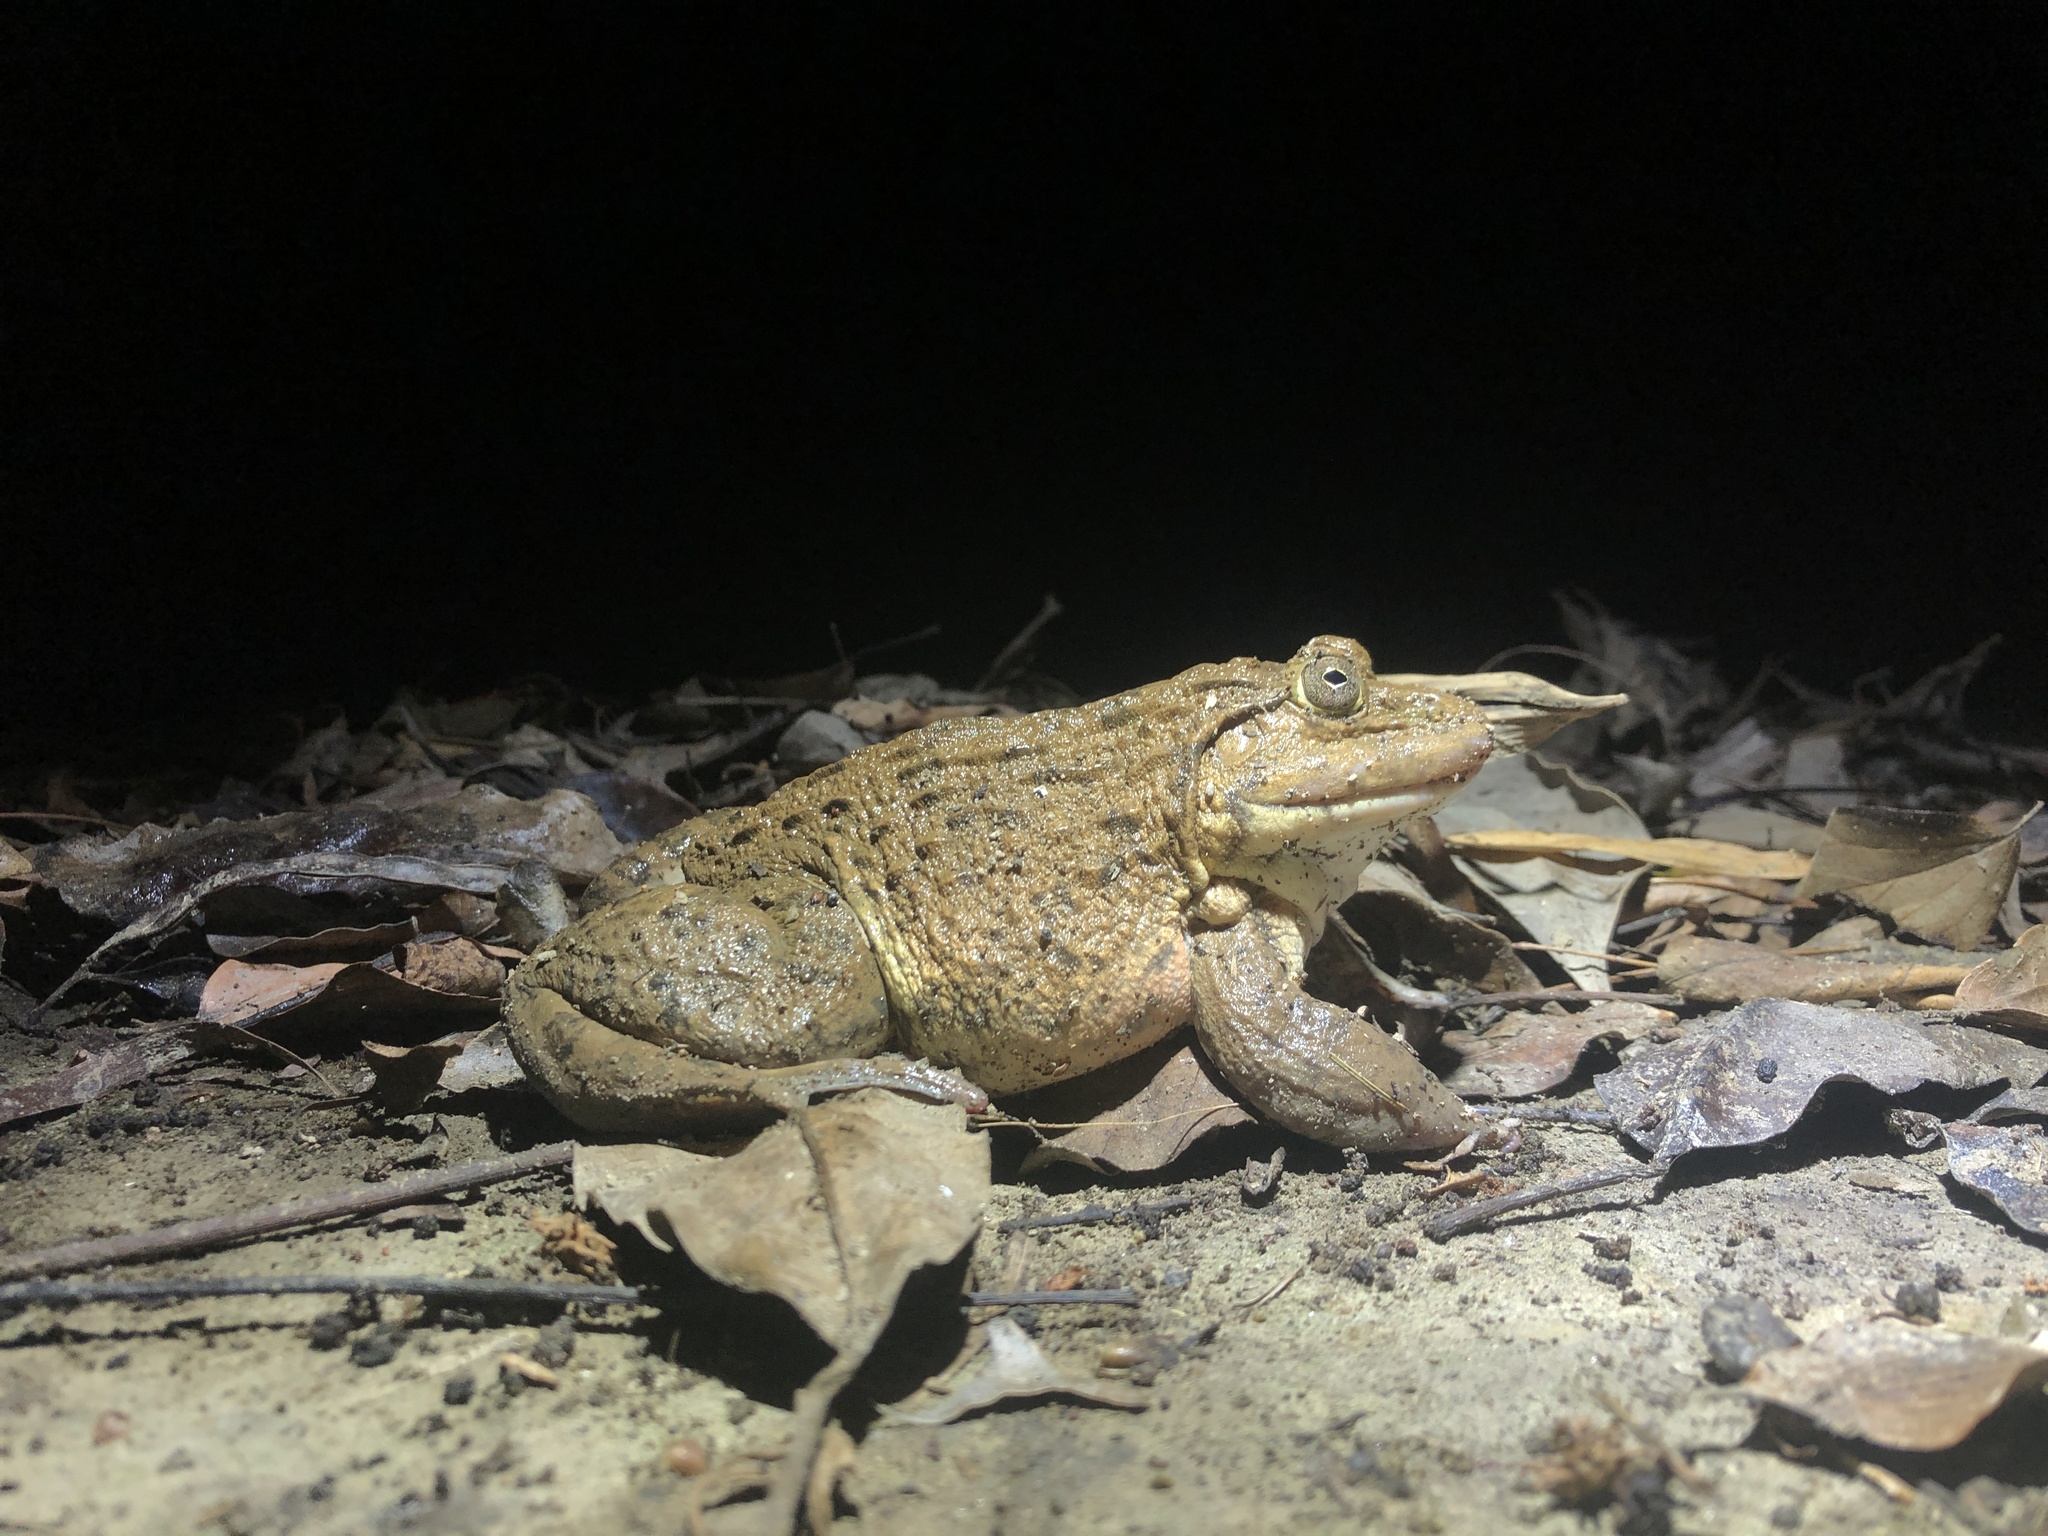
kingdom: Animalia
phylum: Chordata
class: Amphibia
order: Anura
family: Dicroglossidae
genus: Hoplobatrachus
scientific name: Hoplobatrachus rugulosus
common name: Chinese edible frog
